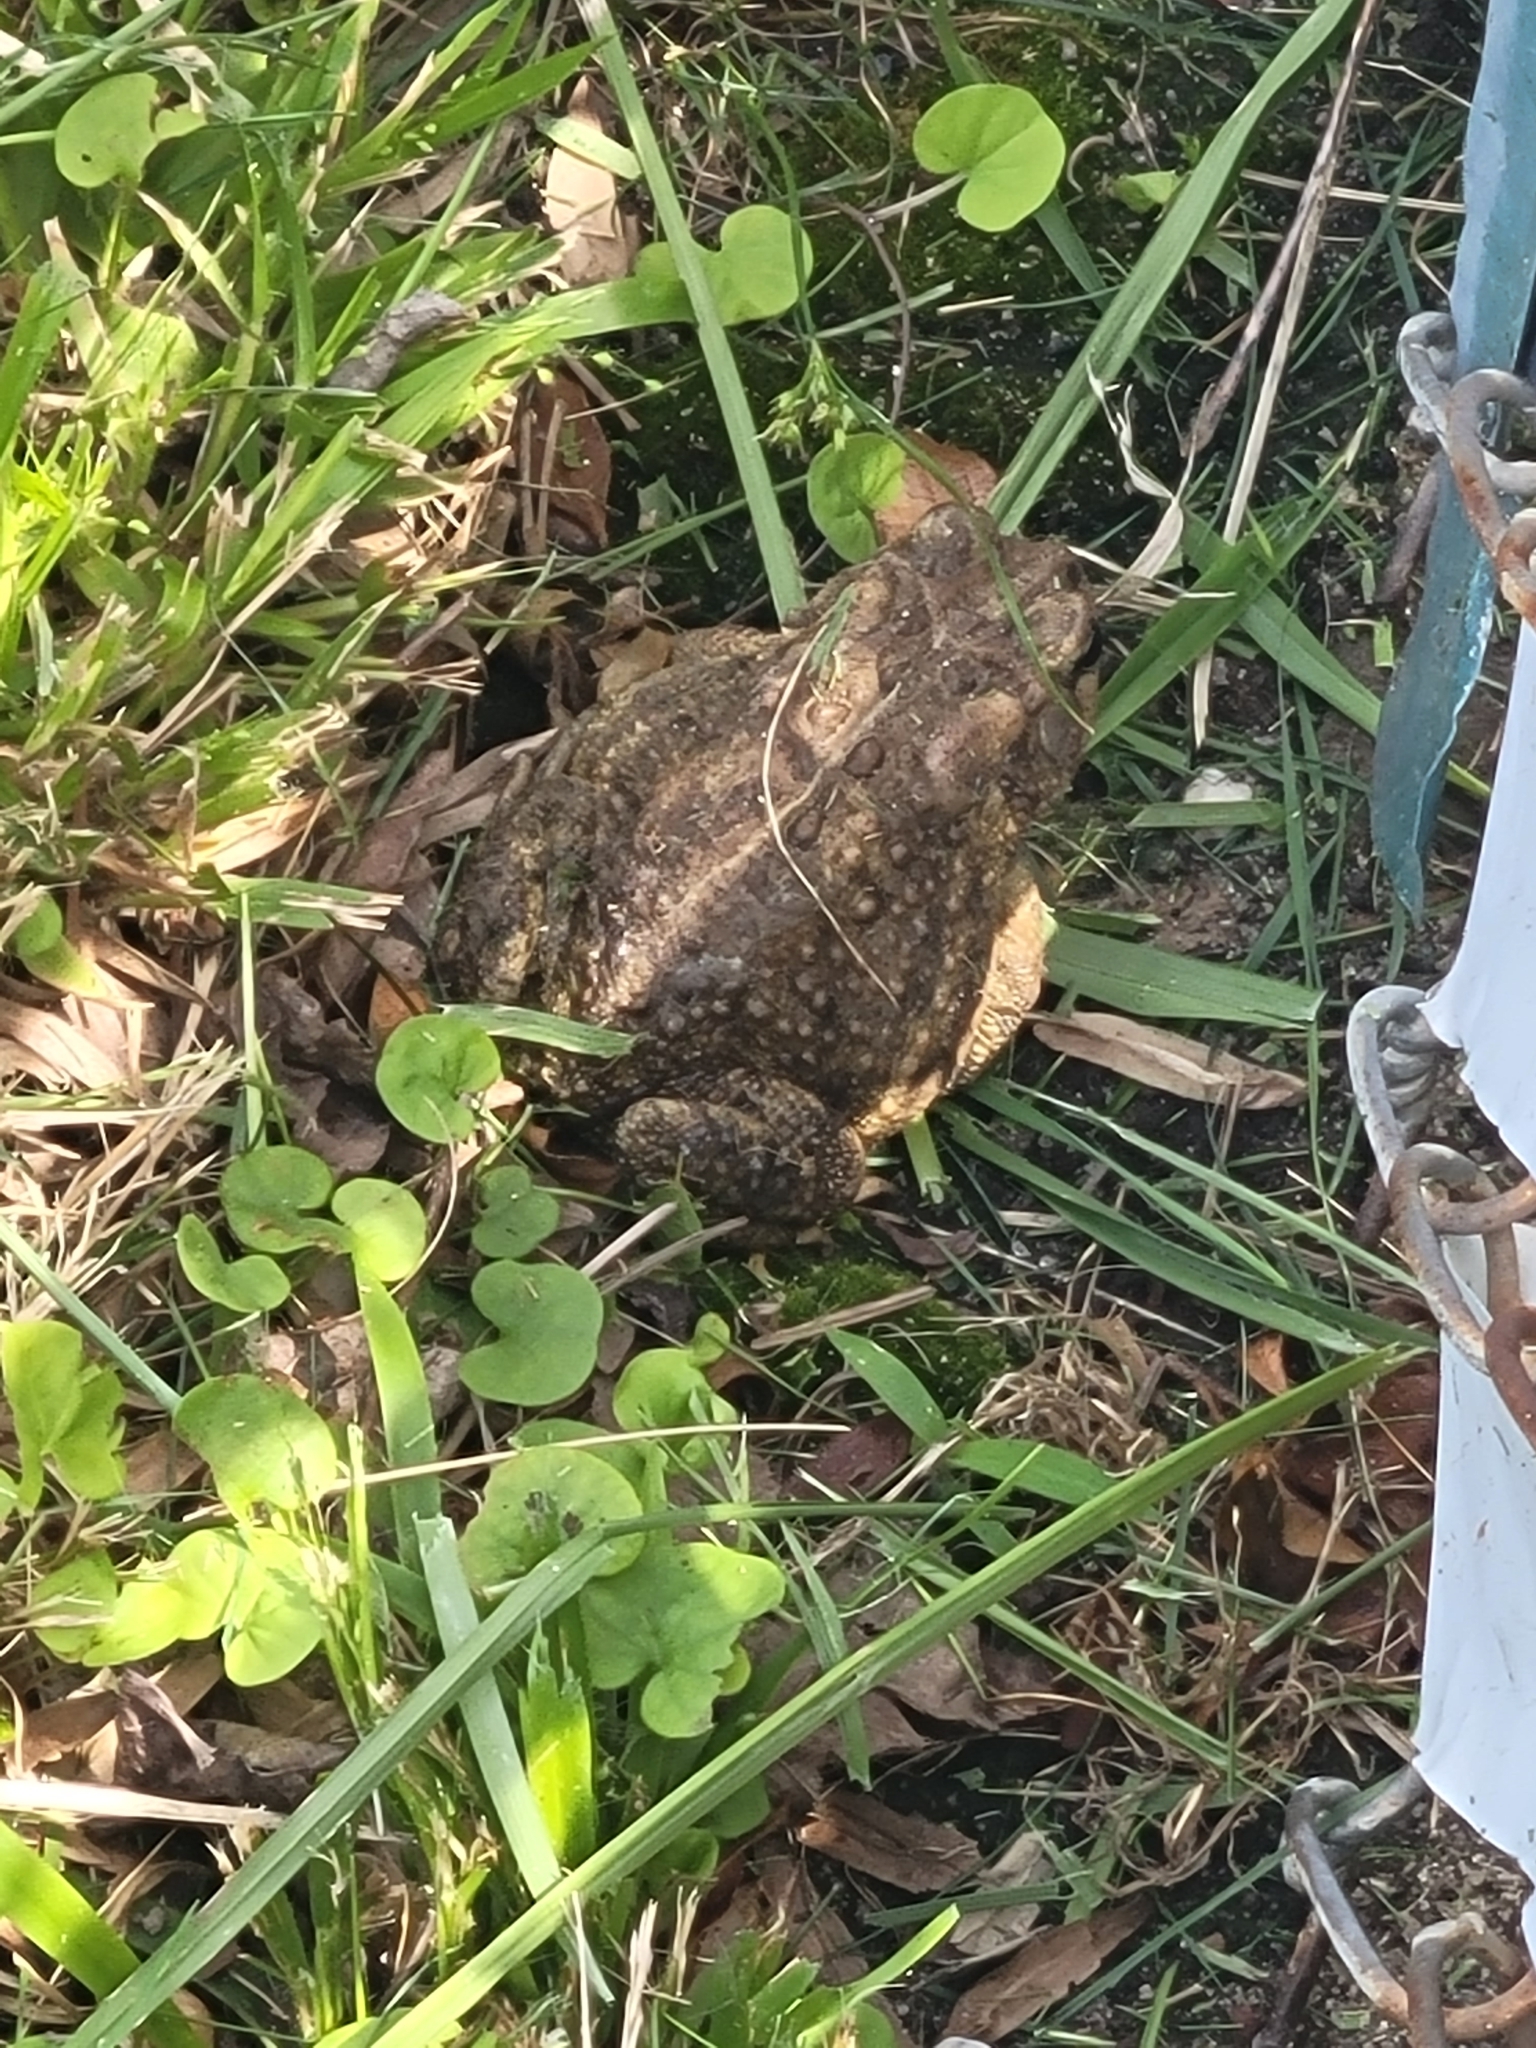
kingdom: Animalia
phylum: Chordata
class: Amphibia
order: Anura
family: Bufonidae
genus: Anaxyrus
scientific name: Anaxyrus terrestris
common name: Southern toad
